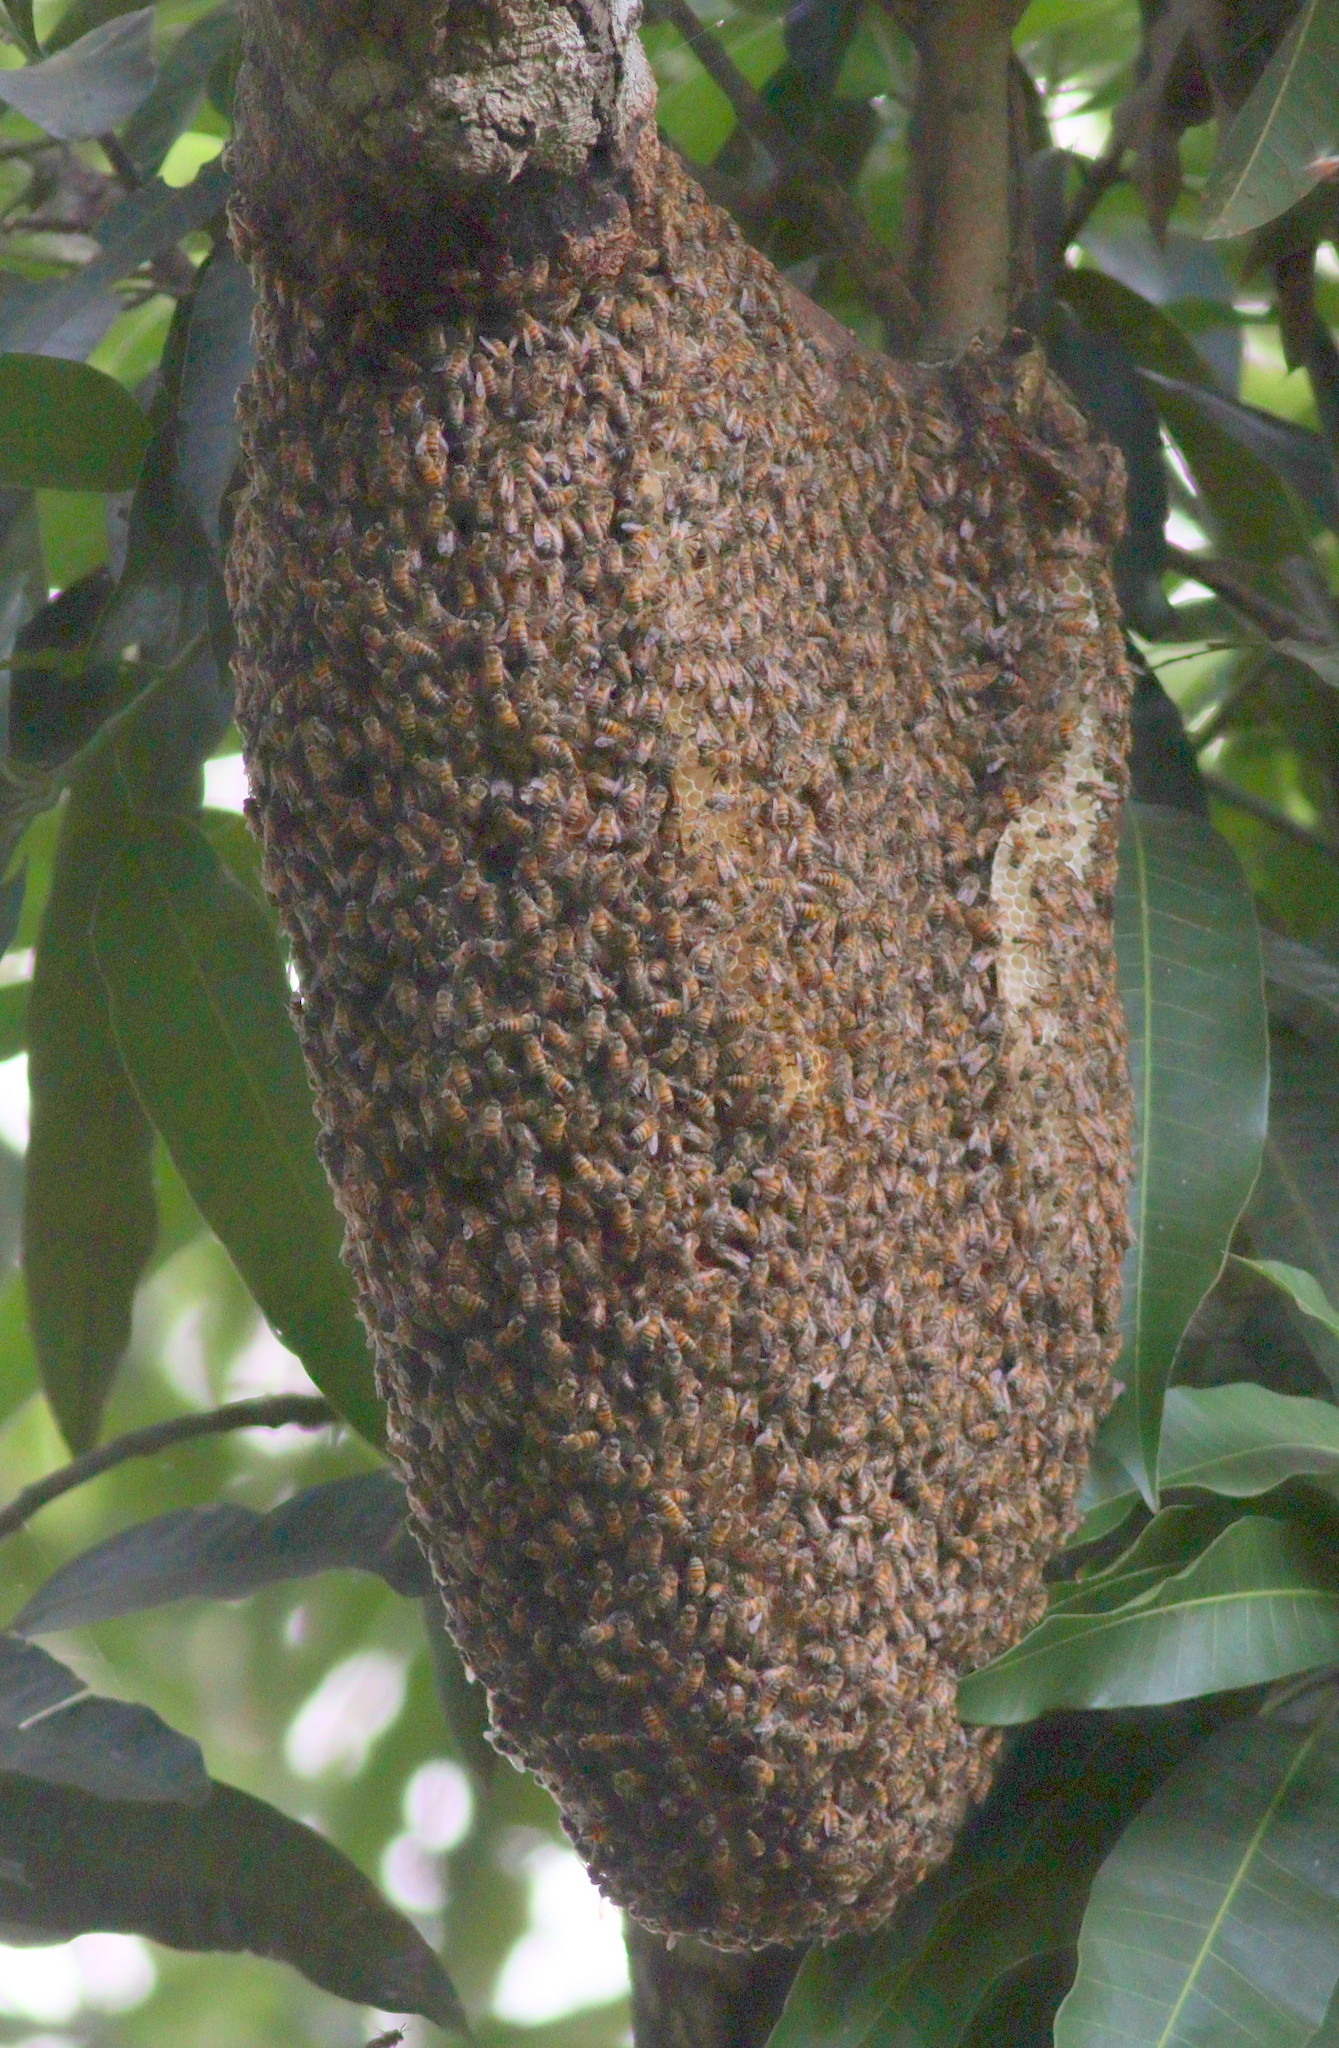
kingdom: Animalia
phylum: Arthropoda
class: Insecta
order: Hymenoptera
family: Apidae
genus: Apis
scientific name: Apis mellifera
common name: Honey bee
